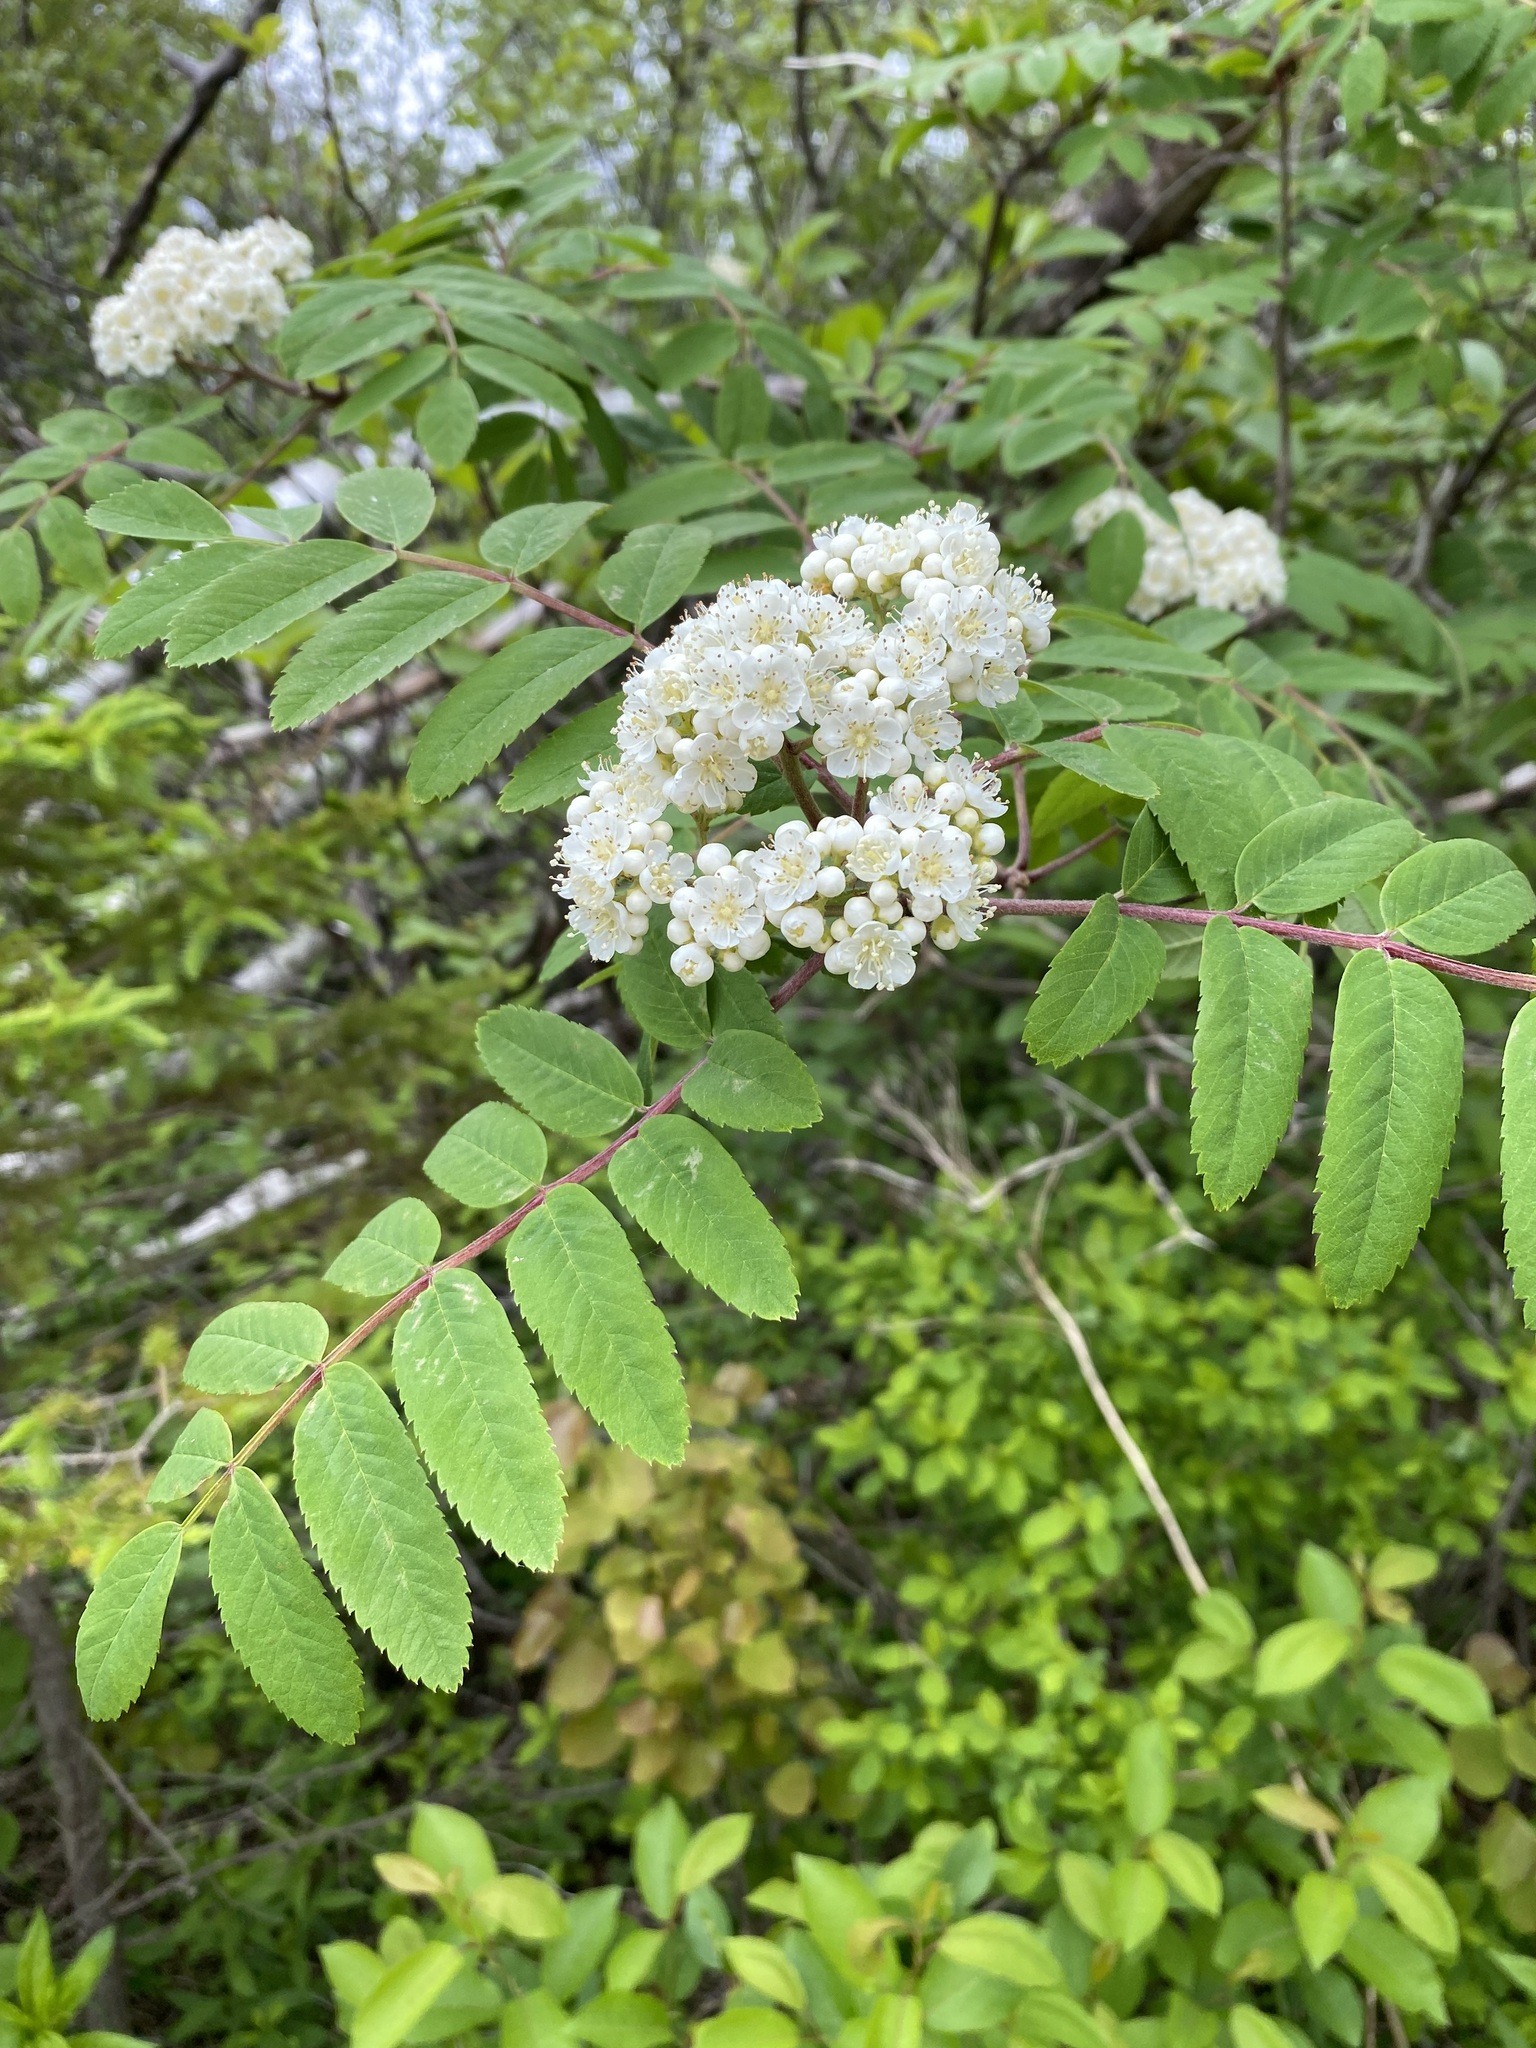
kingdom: Plantae
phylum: Tracheophyta
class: Magnoliopsida
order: Rosales
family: Rosaceae
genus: Sorbus
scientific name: Sorbus aucuparia
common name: Rowan
